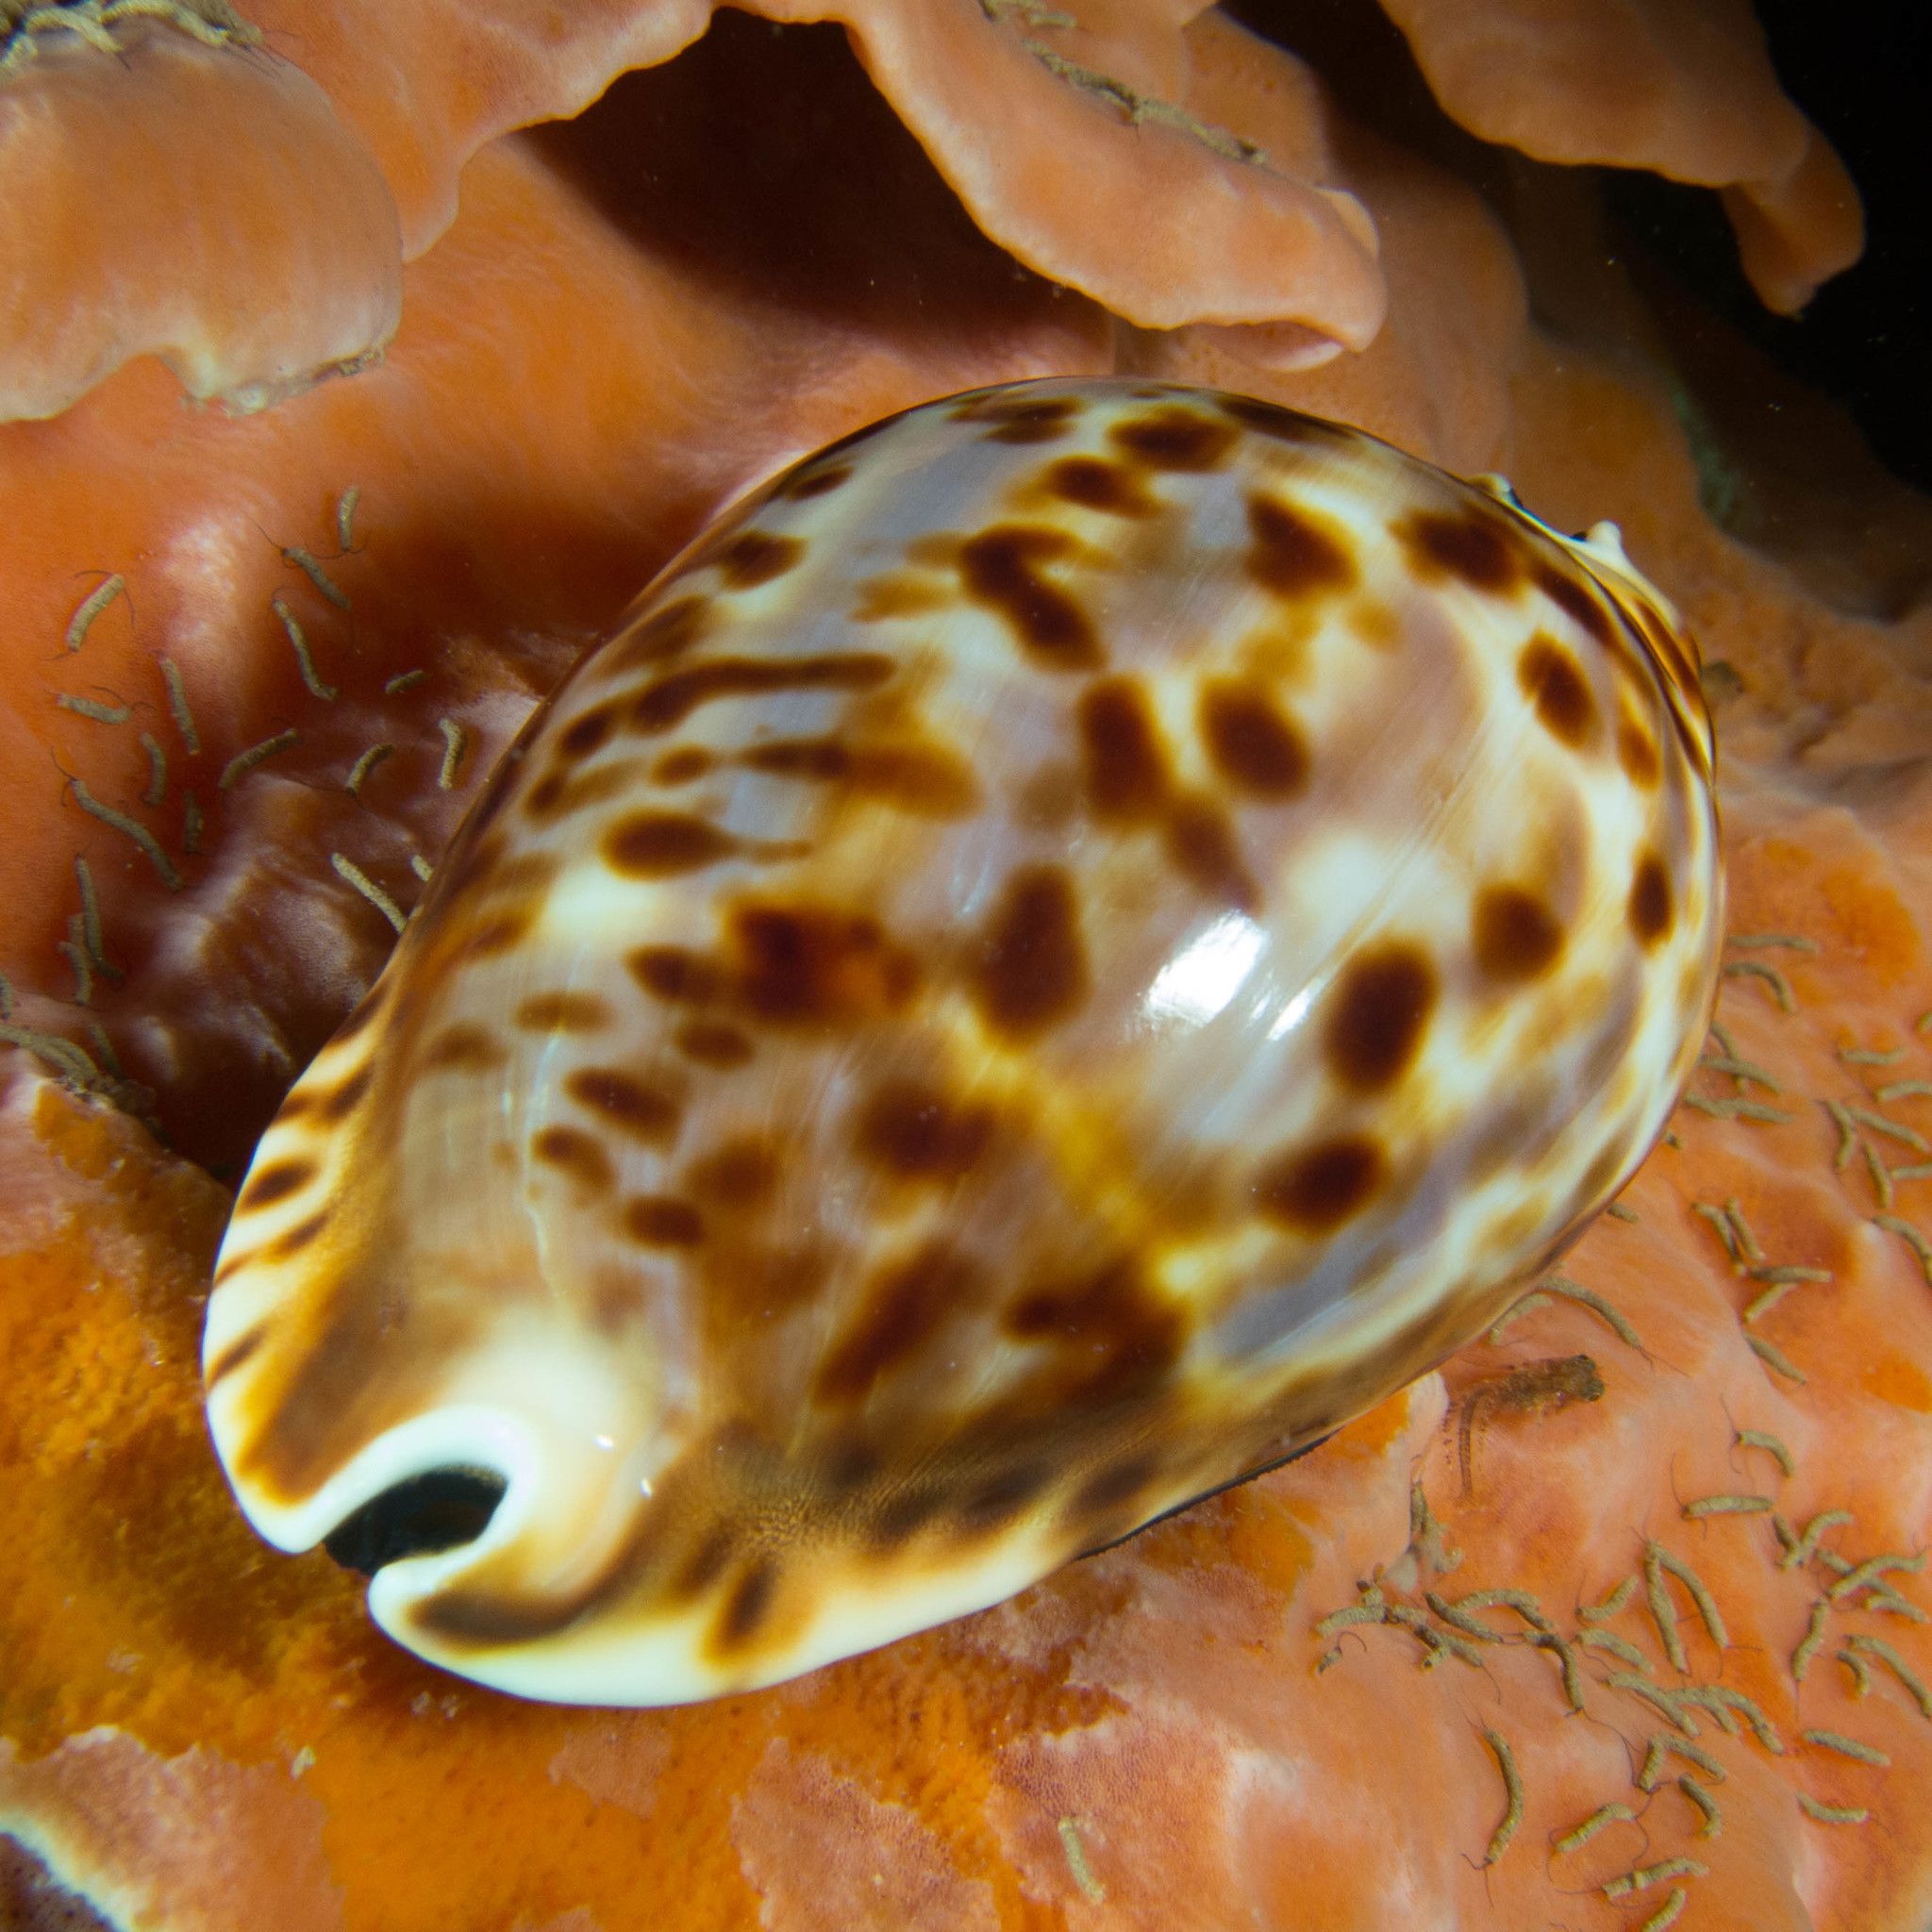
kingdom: Animalia
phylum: Mollusca
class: Gastropoda
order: Littorinimorpha
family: Cypraeidae
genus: Zoila
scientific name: Zoila friendii
